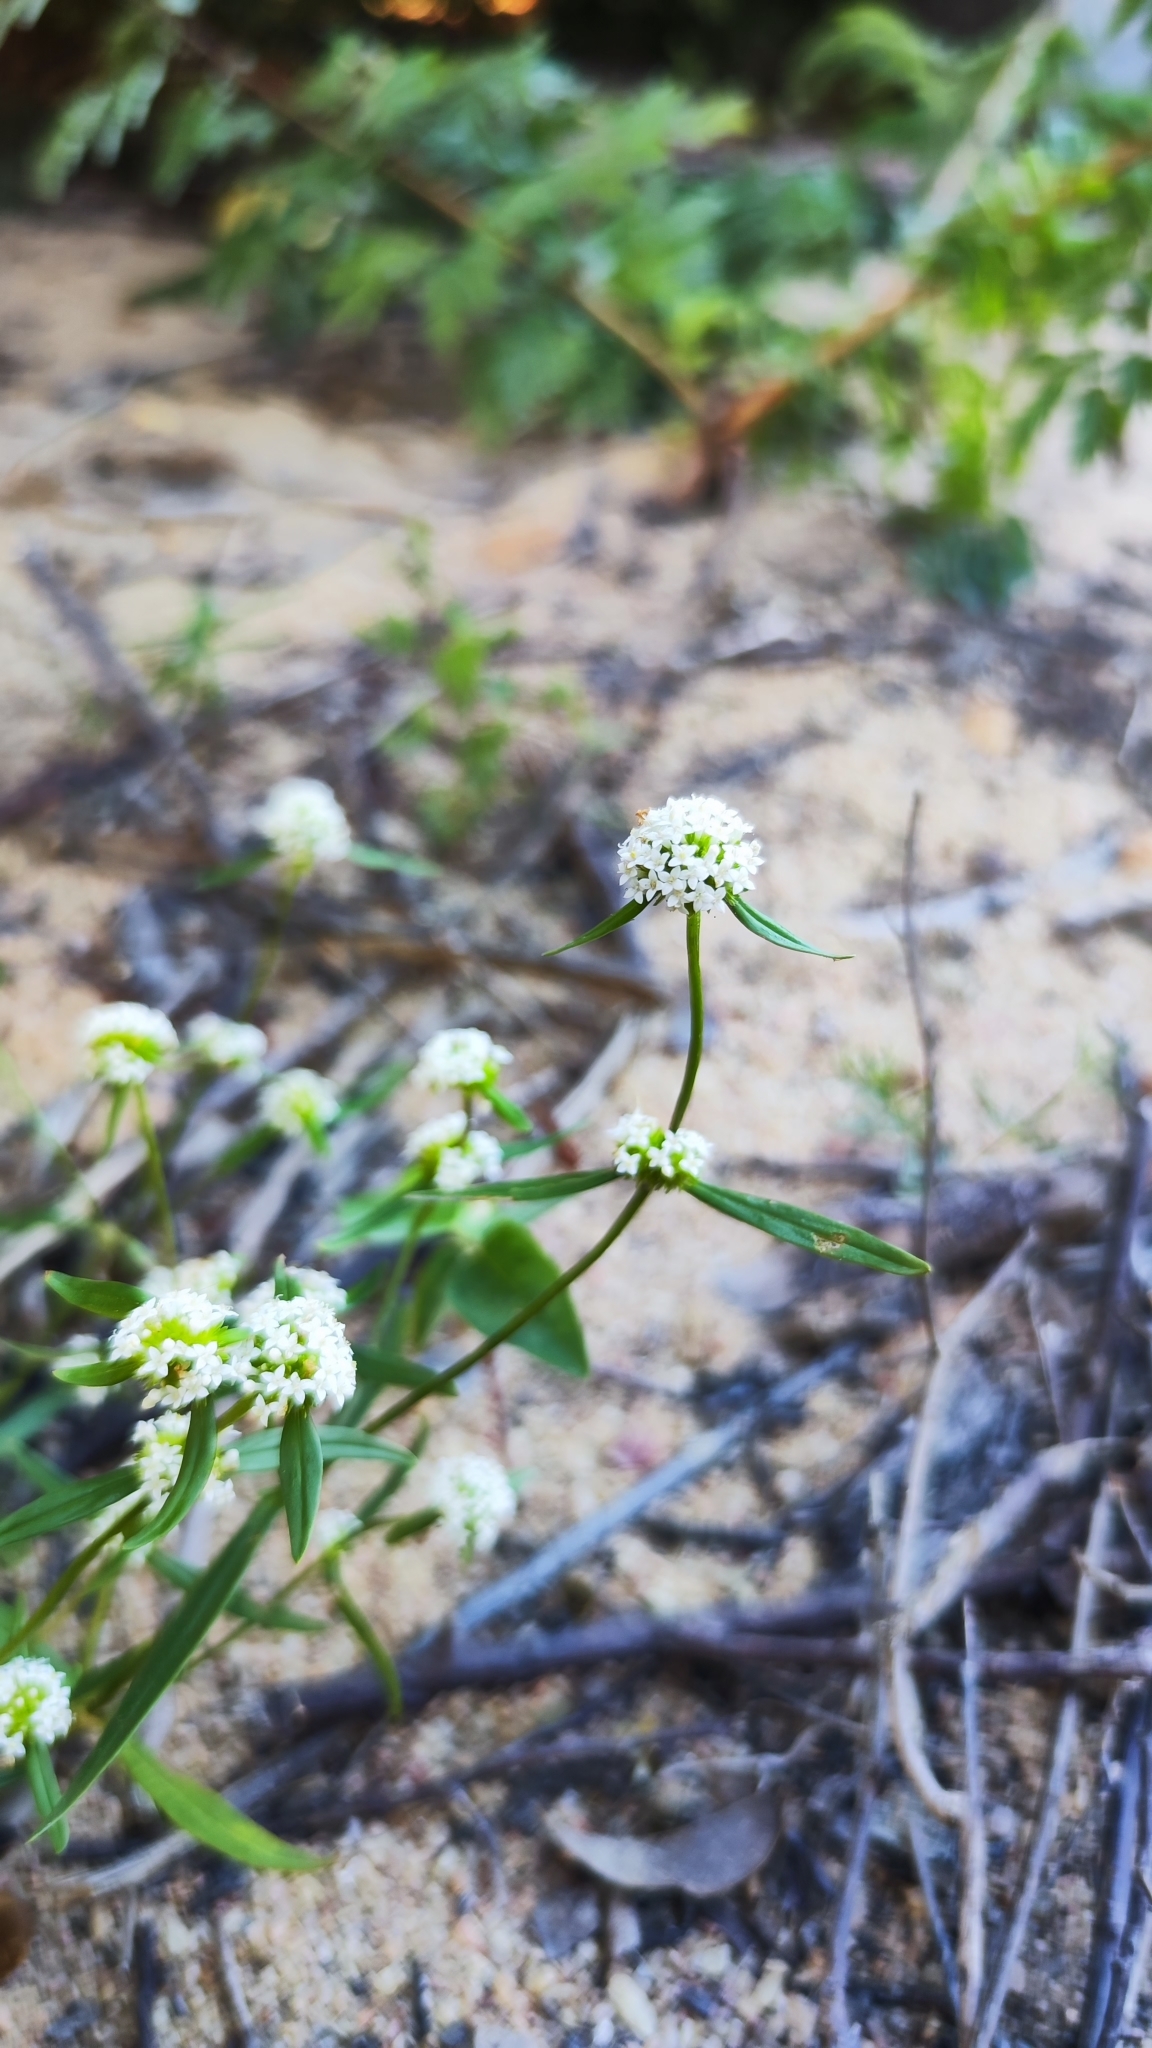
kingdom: Plantae
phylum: Tracheophyta
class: Magnoliopsida
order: Gentianales
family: Rubiaceae
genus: Mitracarpus
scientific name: Mitracarpus baturitensis
